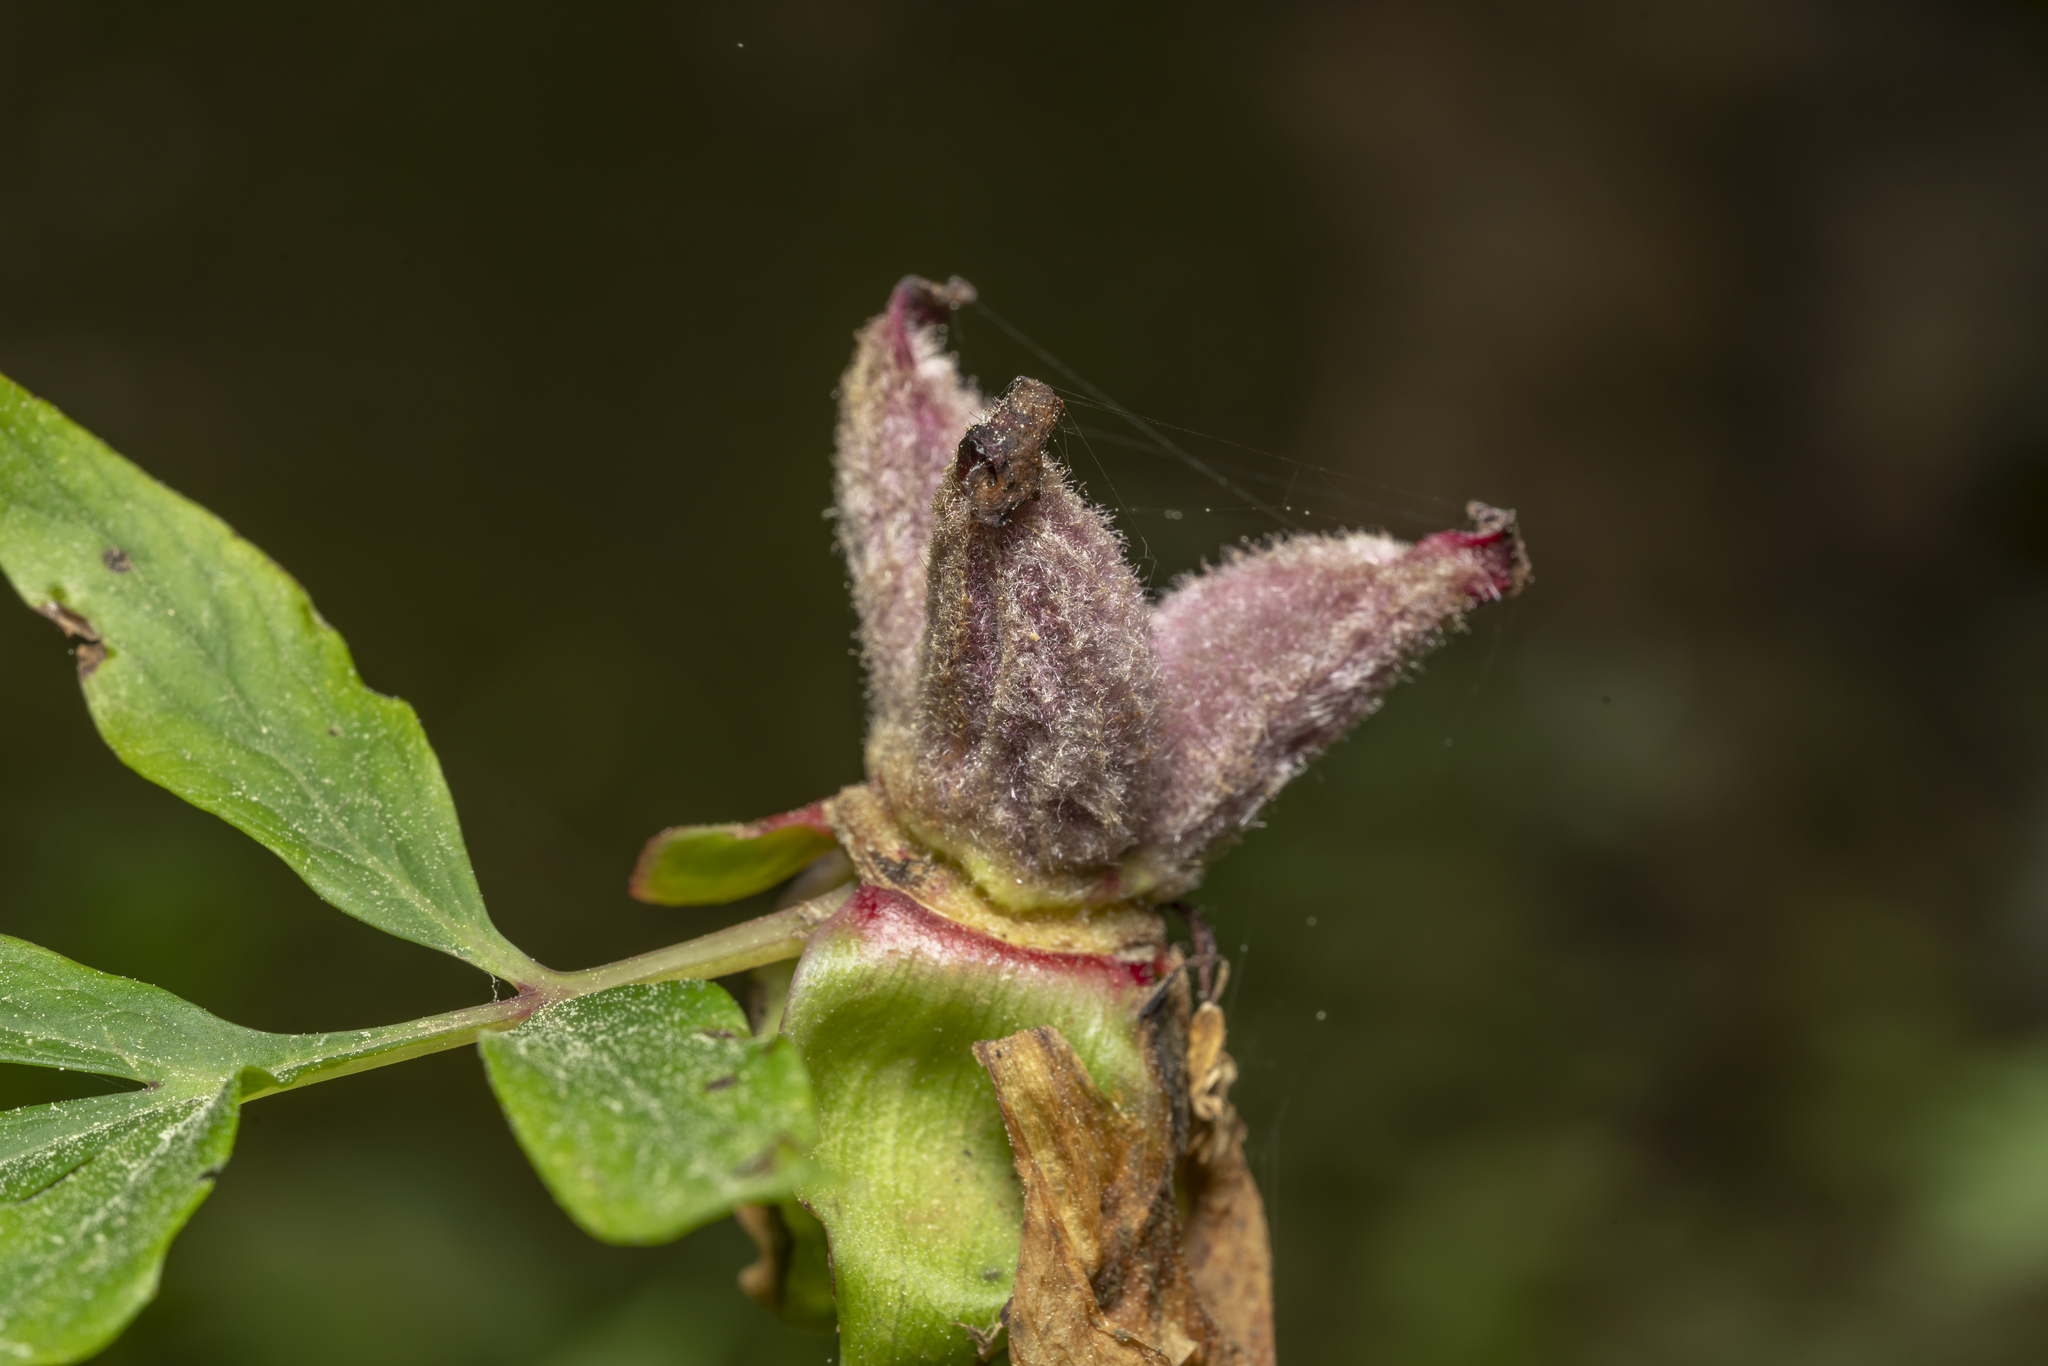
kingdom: Plantae
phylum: Tracheophyta
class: Magnoliopsida
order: Saxifragales
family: Paeoniaceae
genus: Paeonia
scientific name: Paeonia clusii
